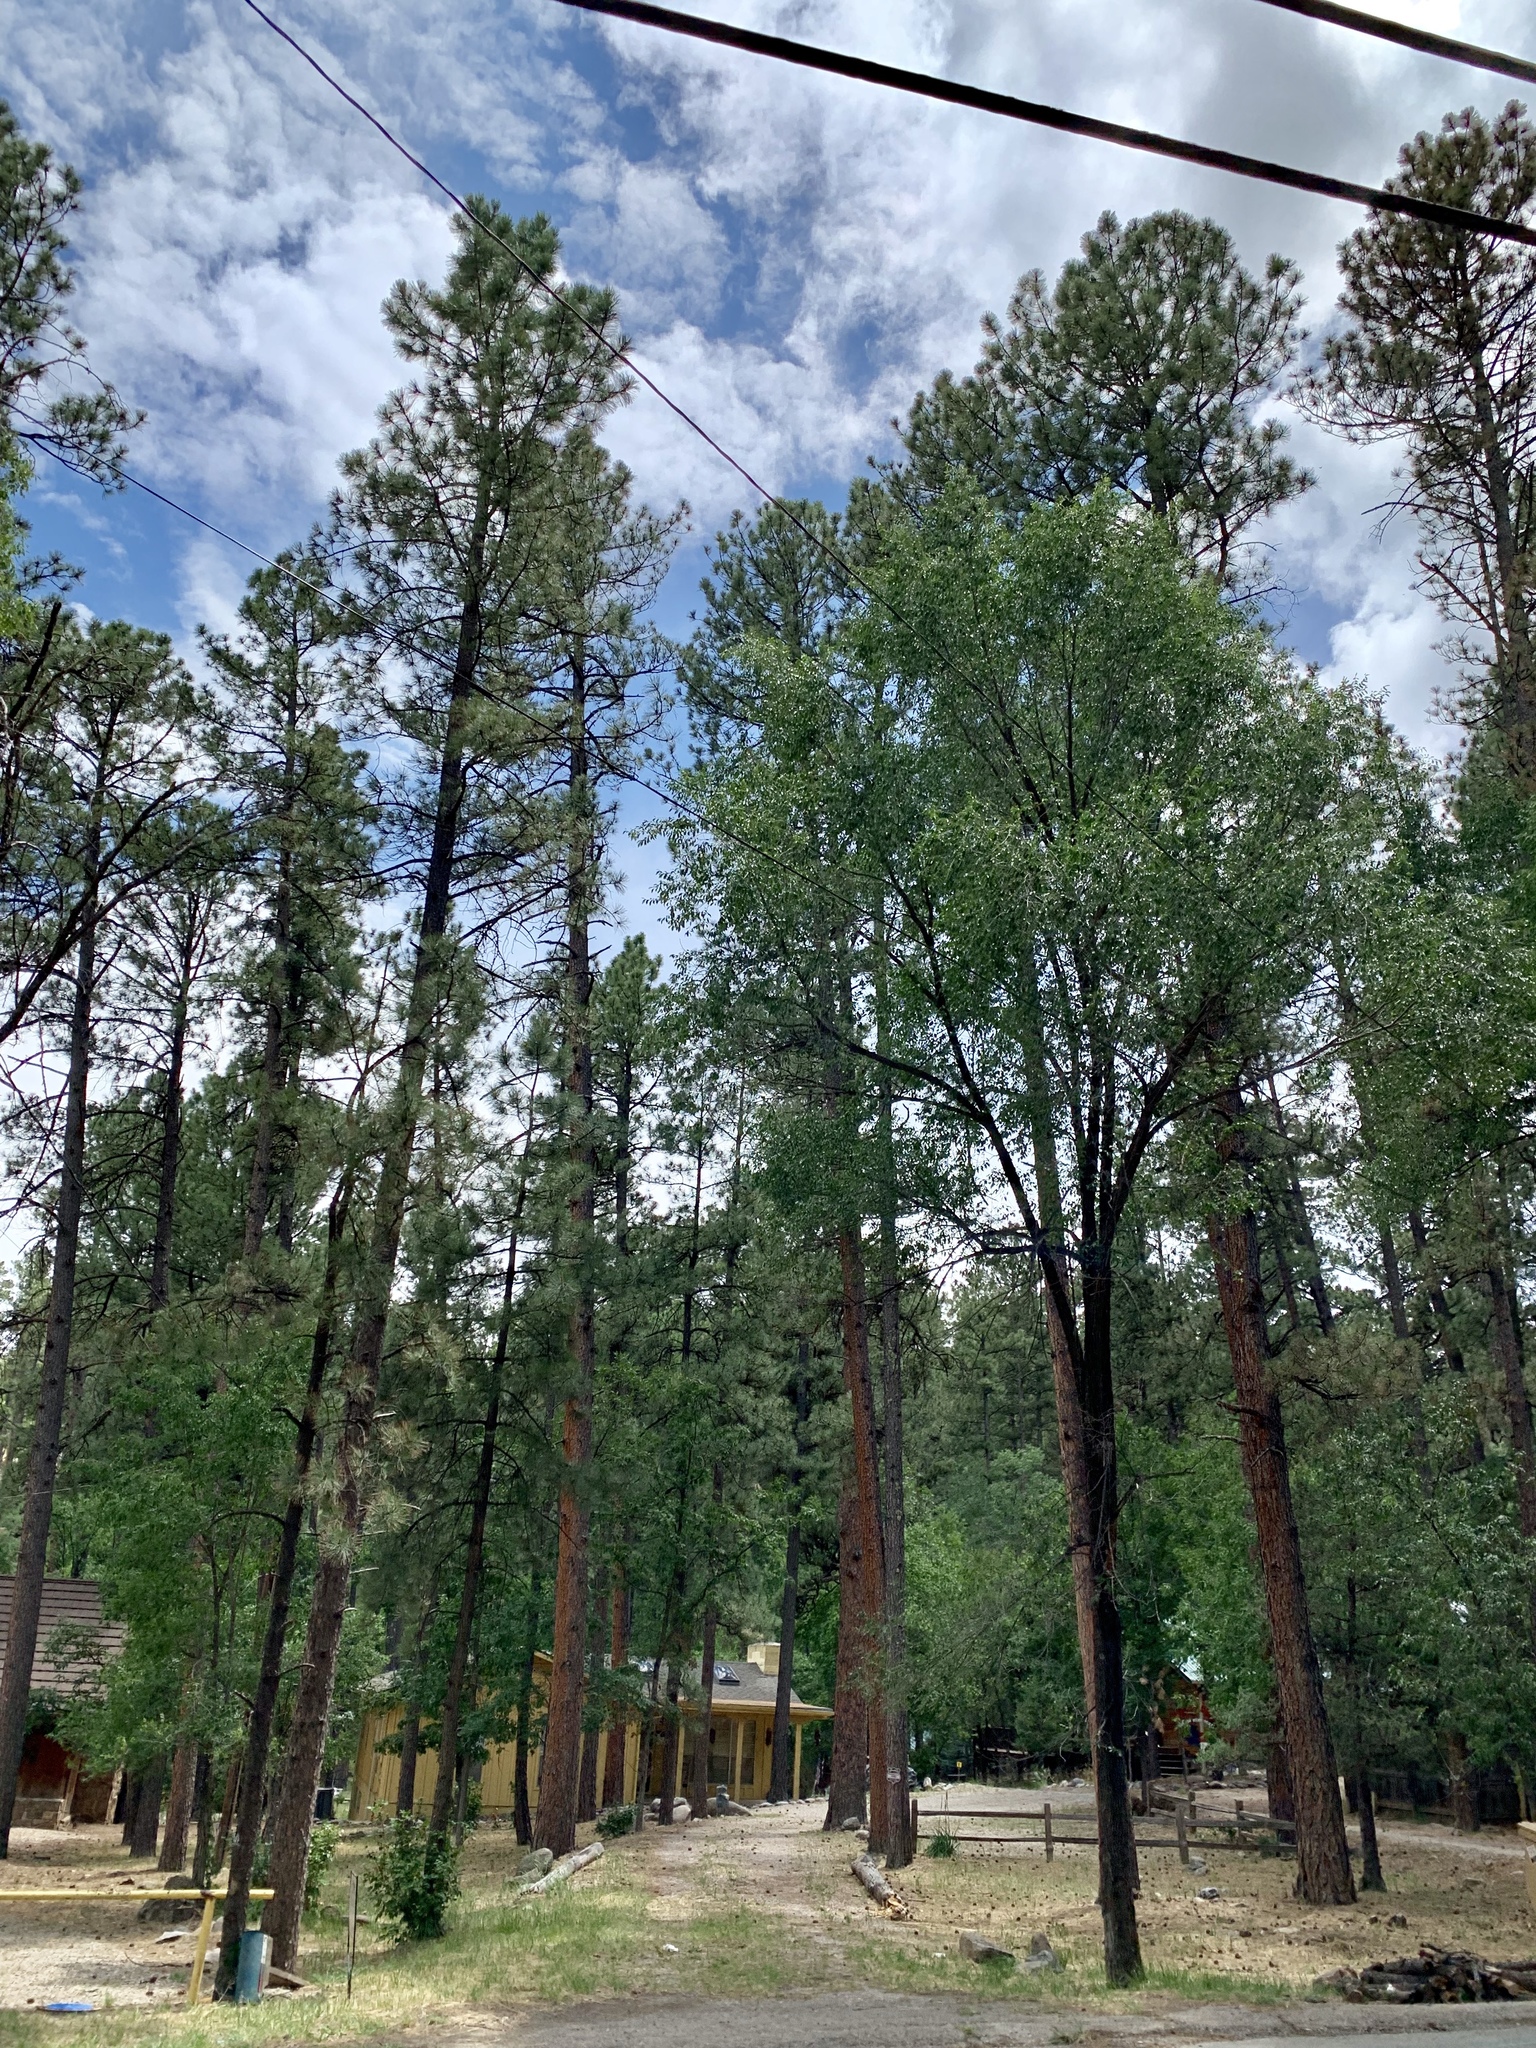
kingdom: Plantae
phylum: Tracheophyta
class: Pinopsida
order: Pinales
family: Pinaceae
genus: Pinus
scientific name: Pinus ponderosa
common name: Western yellow-pine
